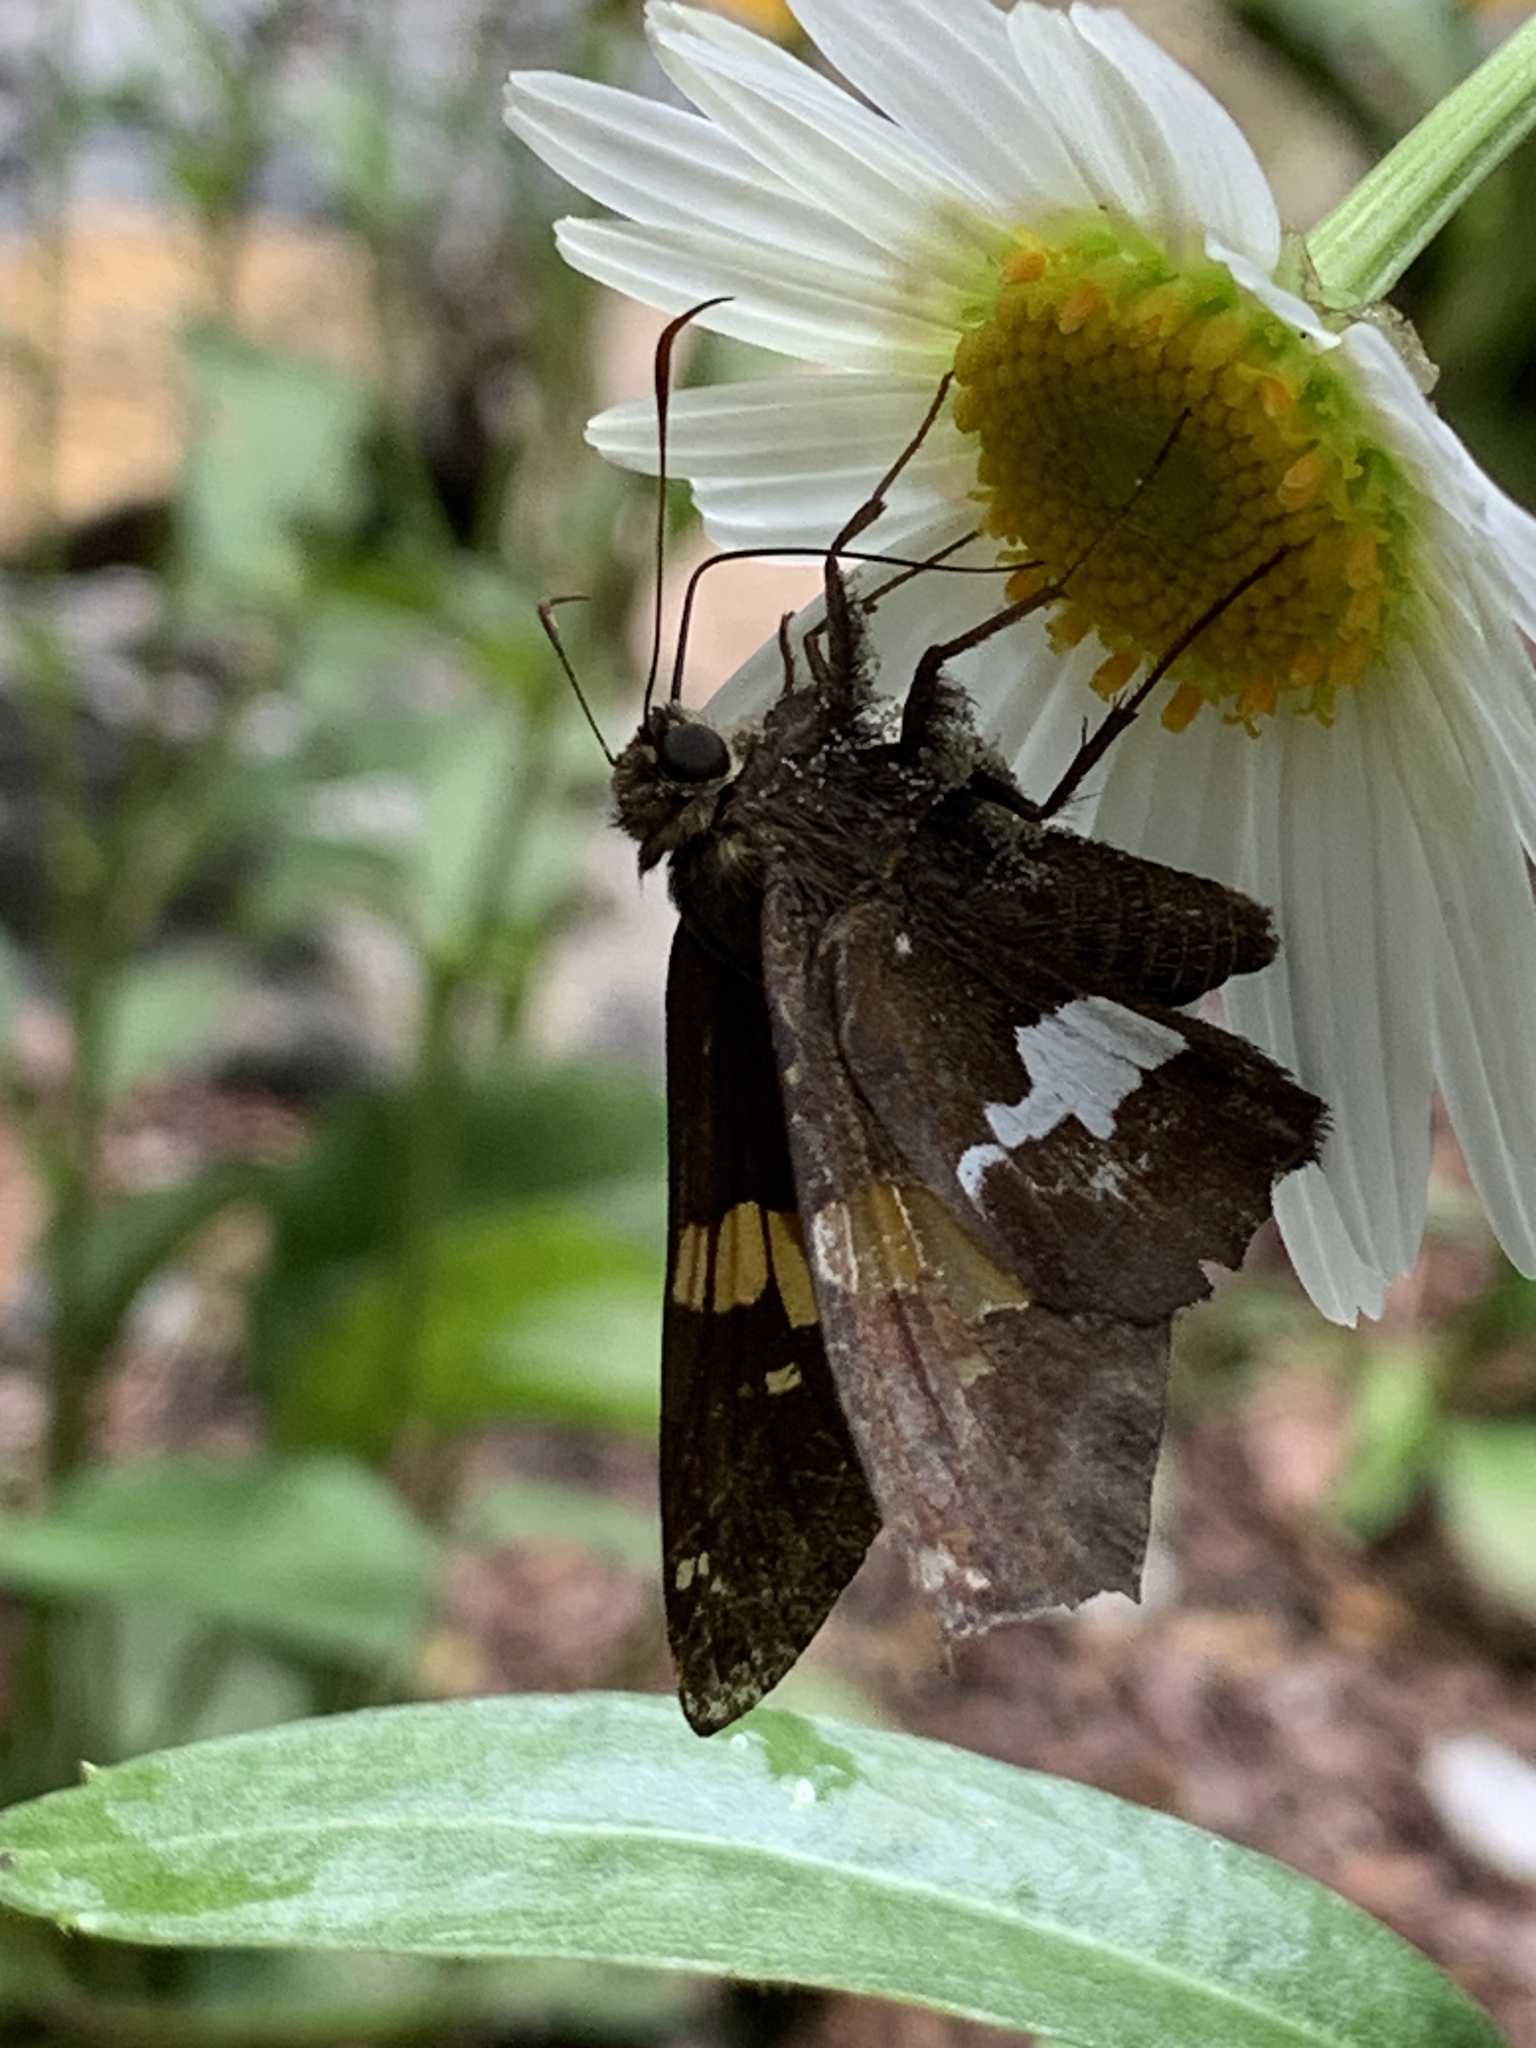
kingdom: Animalia
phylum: Arthropoda
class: Insecta
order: Lepidoptera
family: Hesperiidae
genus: Epargyreus
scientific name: Epargyreus clarus
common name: Silver-spotted skipper
